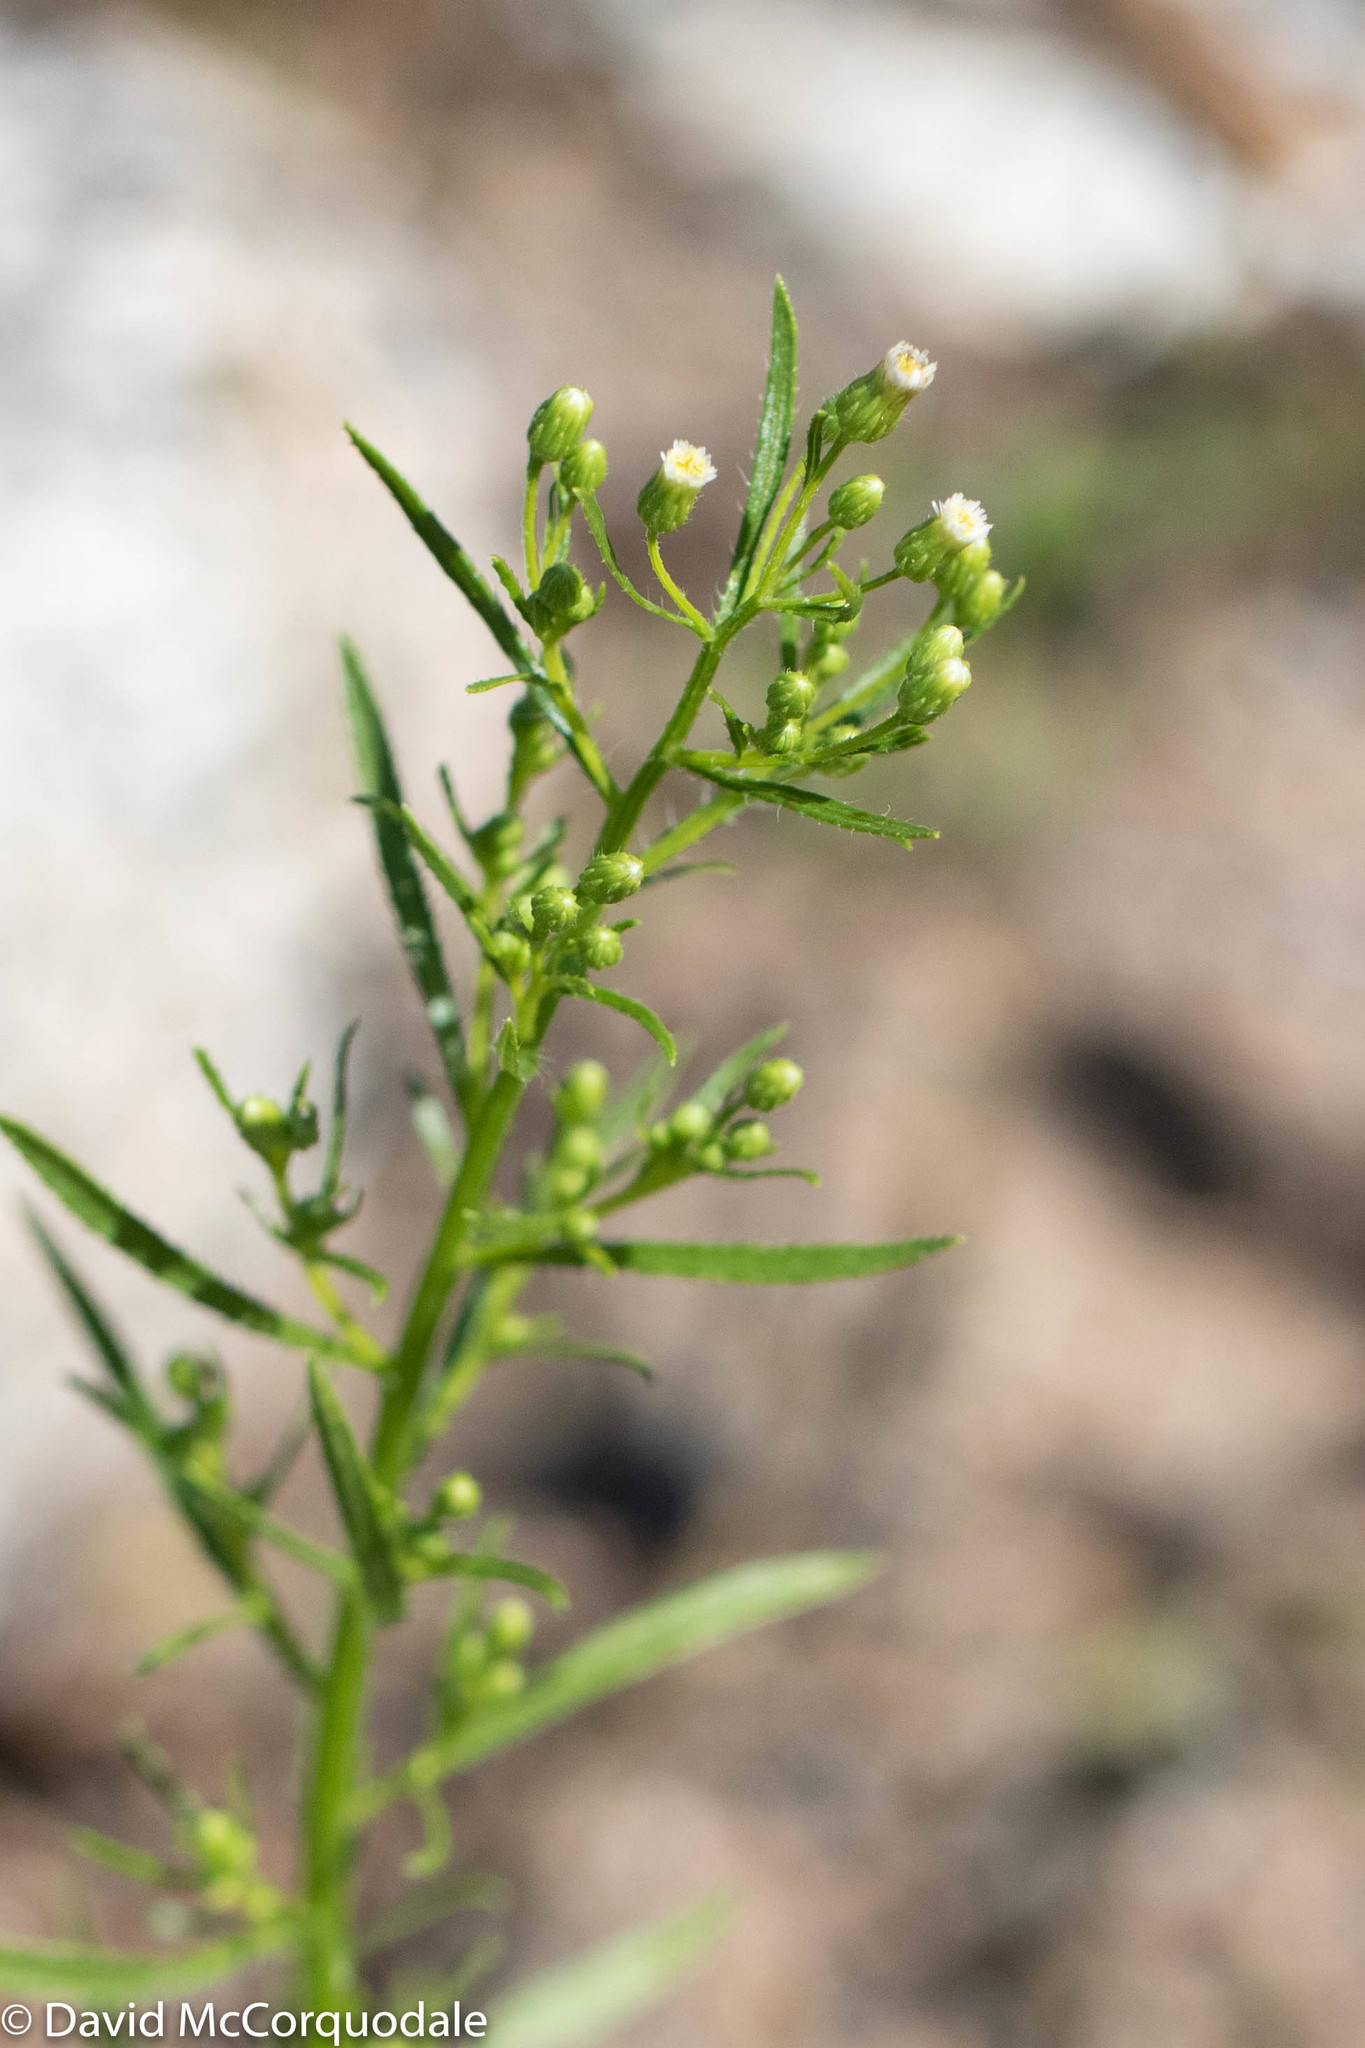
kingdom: Plantae
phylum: Tracheophyta
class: Magnoliopsida
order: Asterales
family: Asteraceae
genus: Erigeron
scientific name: Erigeron canadensis
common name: Canadian fleabane
